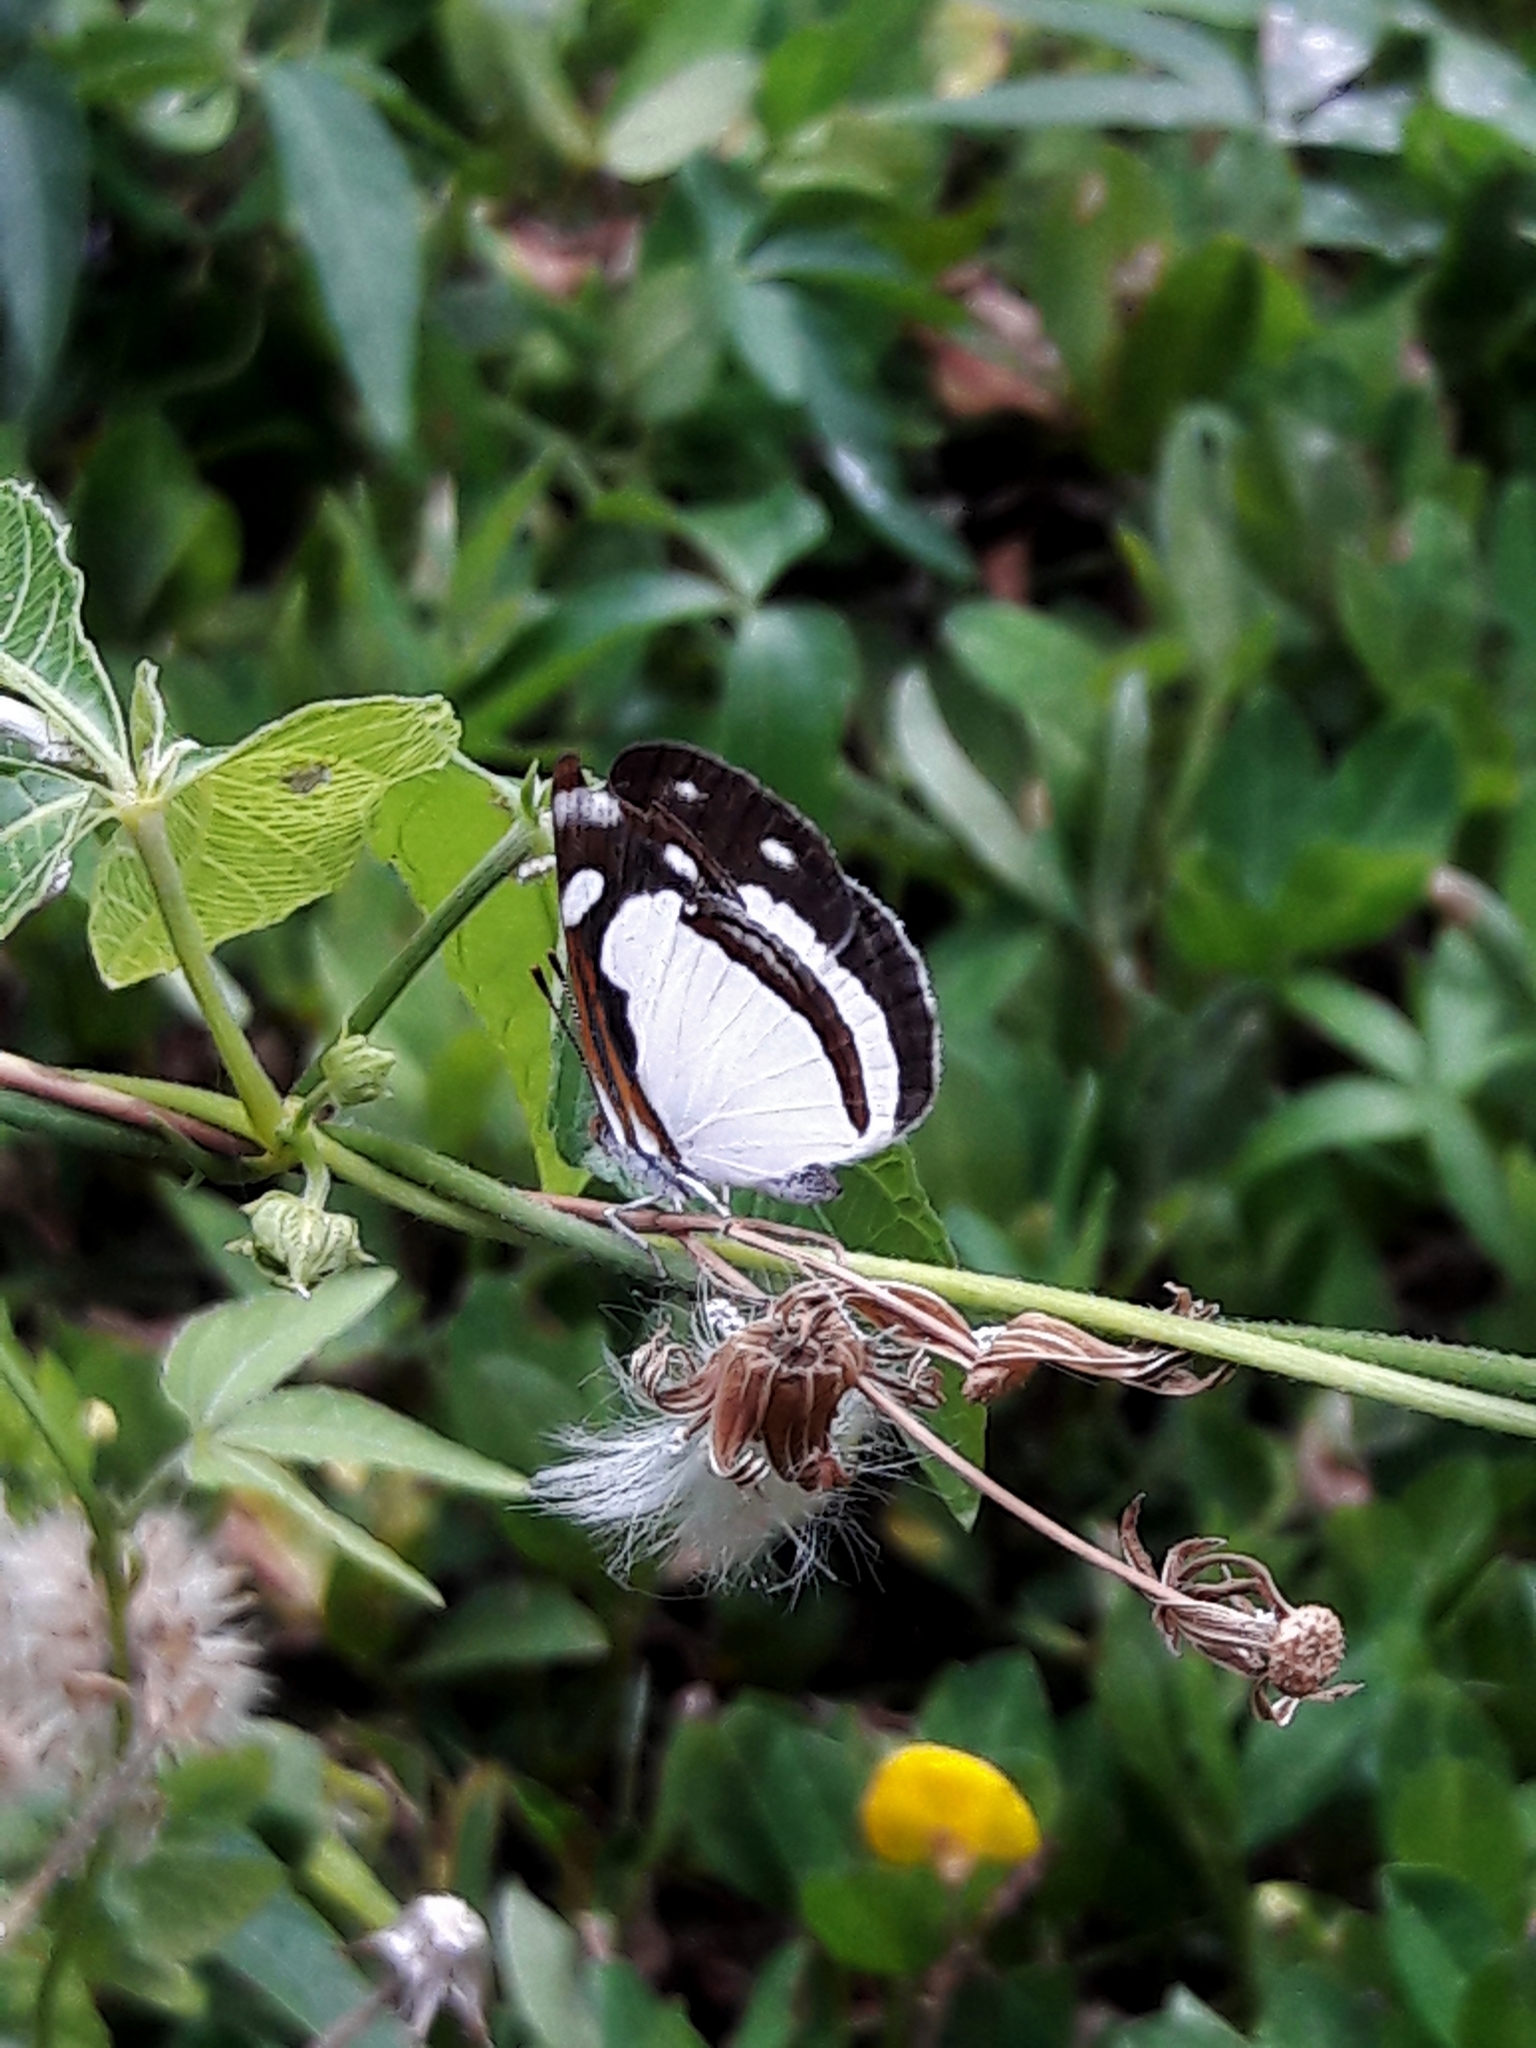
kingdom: Animalia
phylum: Arthropoda
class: Insecta
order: Lepidoptera
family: Nymphalidae
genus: Dynamine
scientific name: Dynamine agacles
